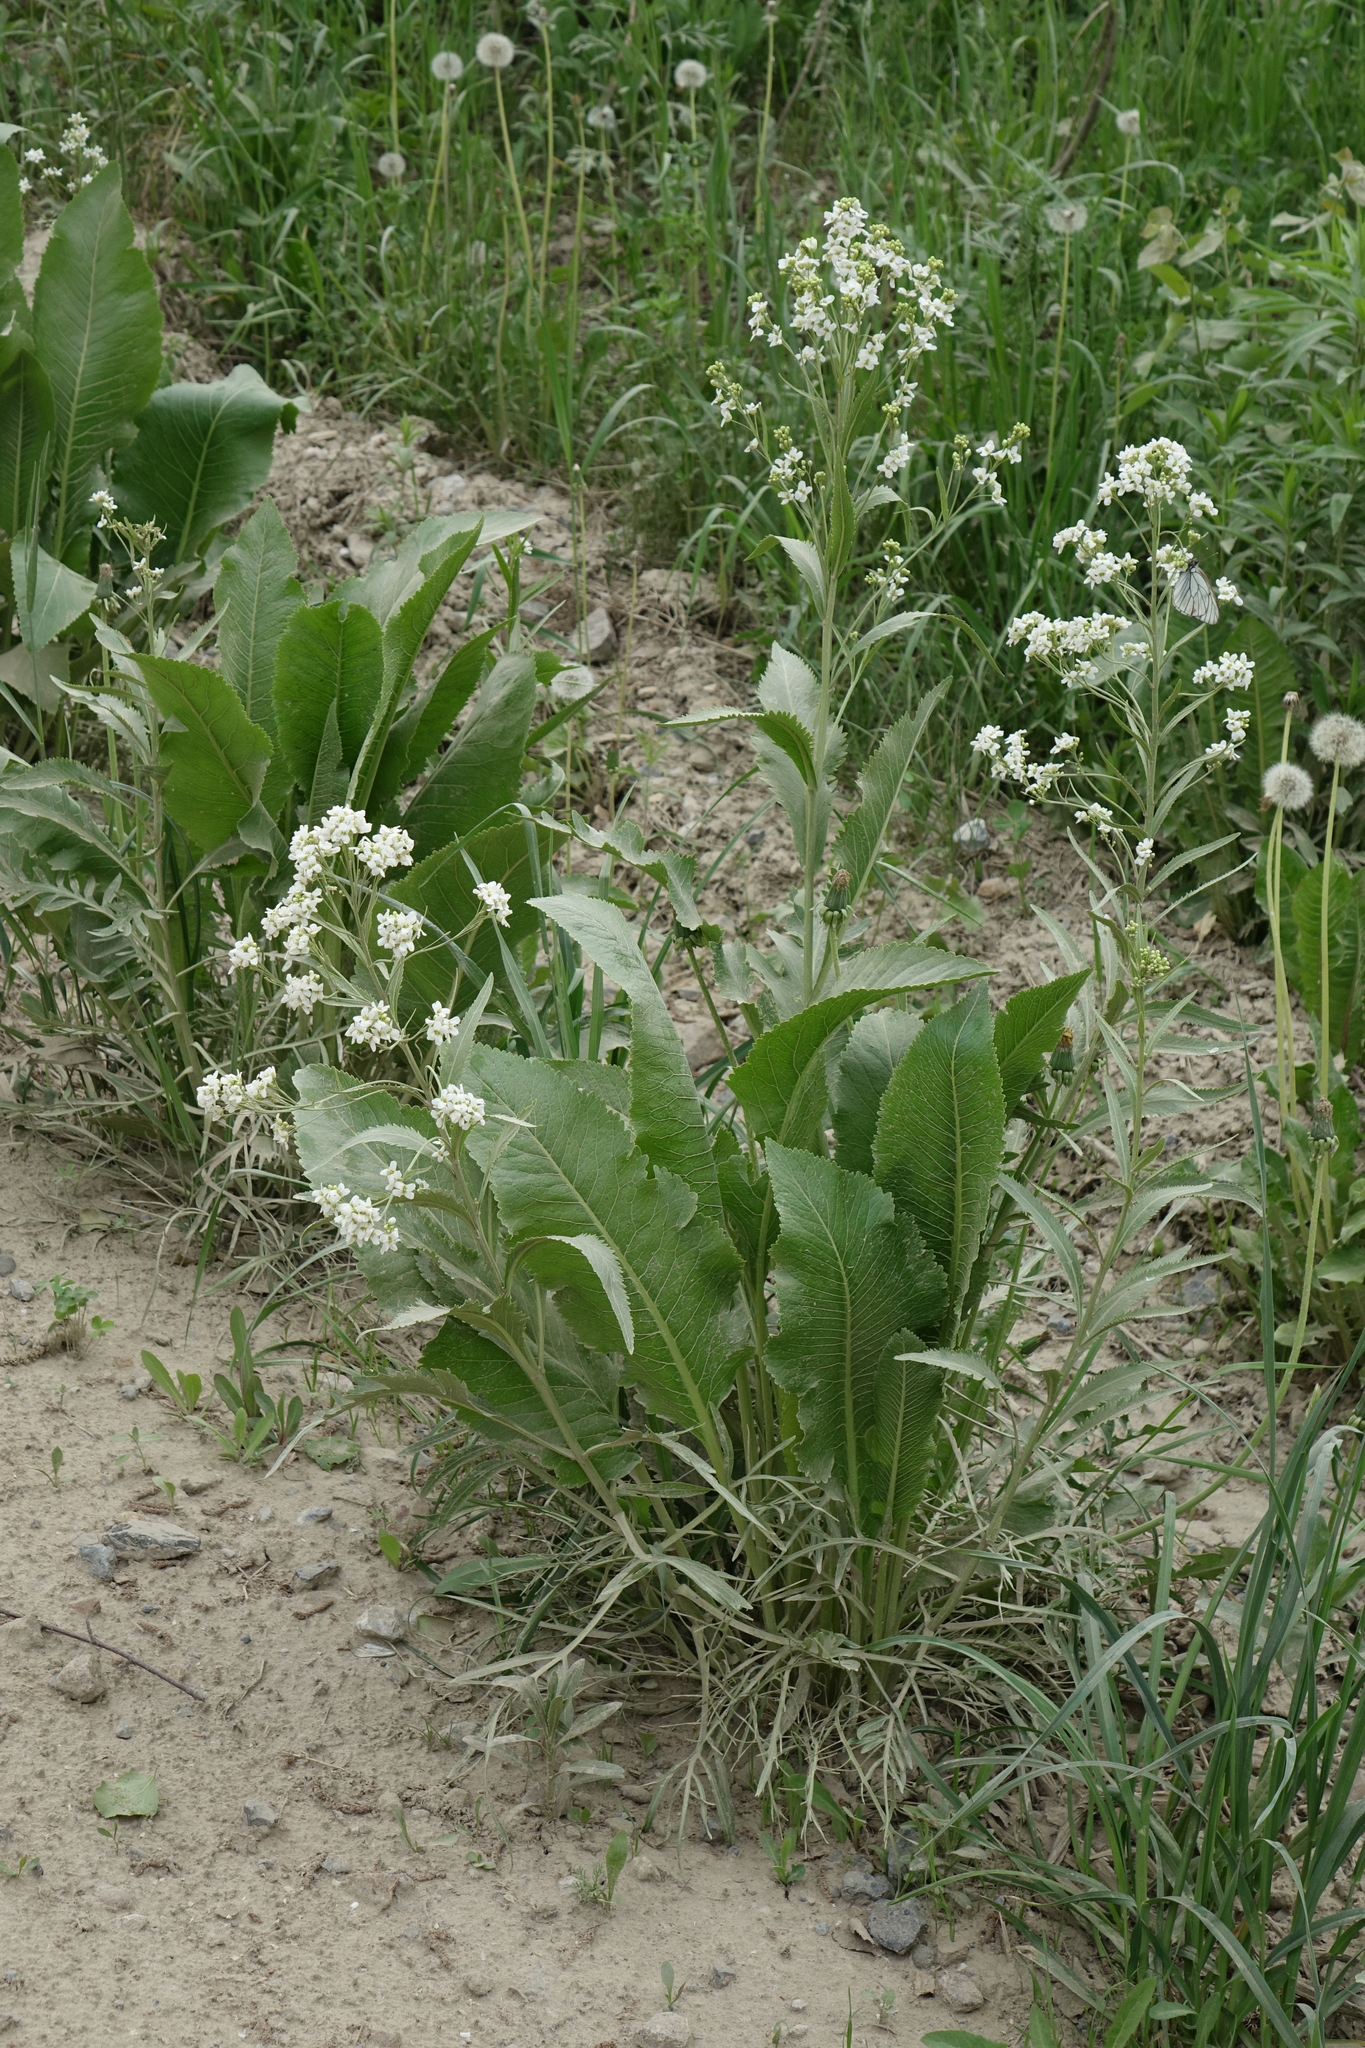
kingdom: Plantae
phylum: Tracheophyta
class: Magnoliopsida
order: Brassicales
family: Brassicaceae
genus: Armoracia
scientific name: Armoracia rusticana
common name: Horseradish
